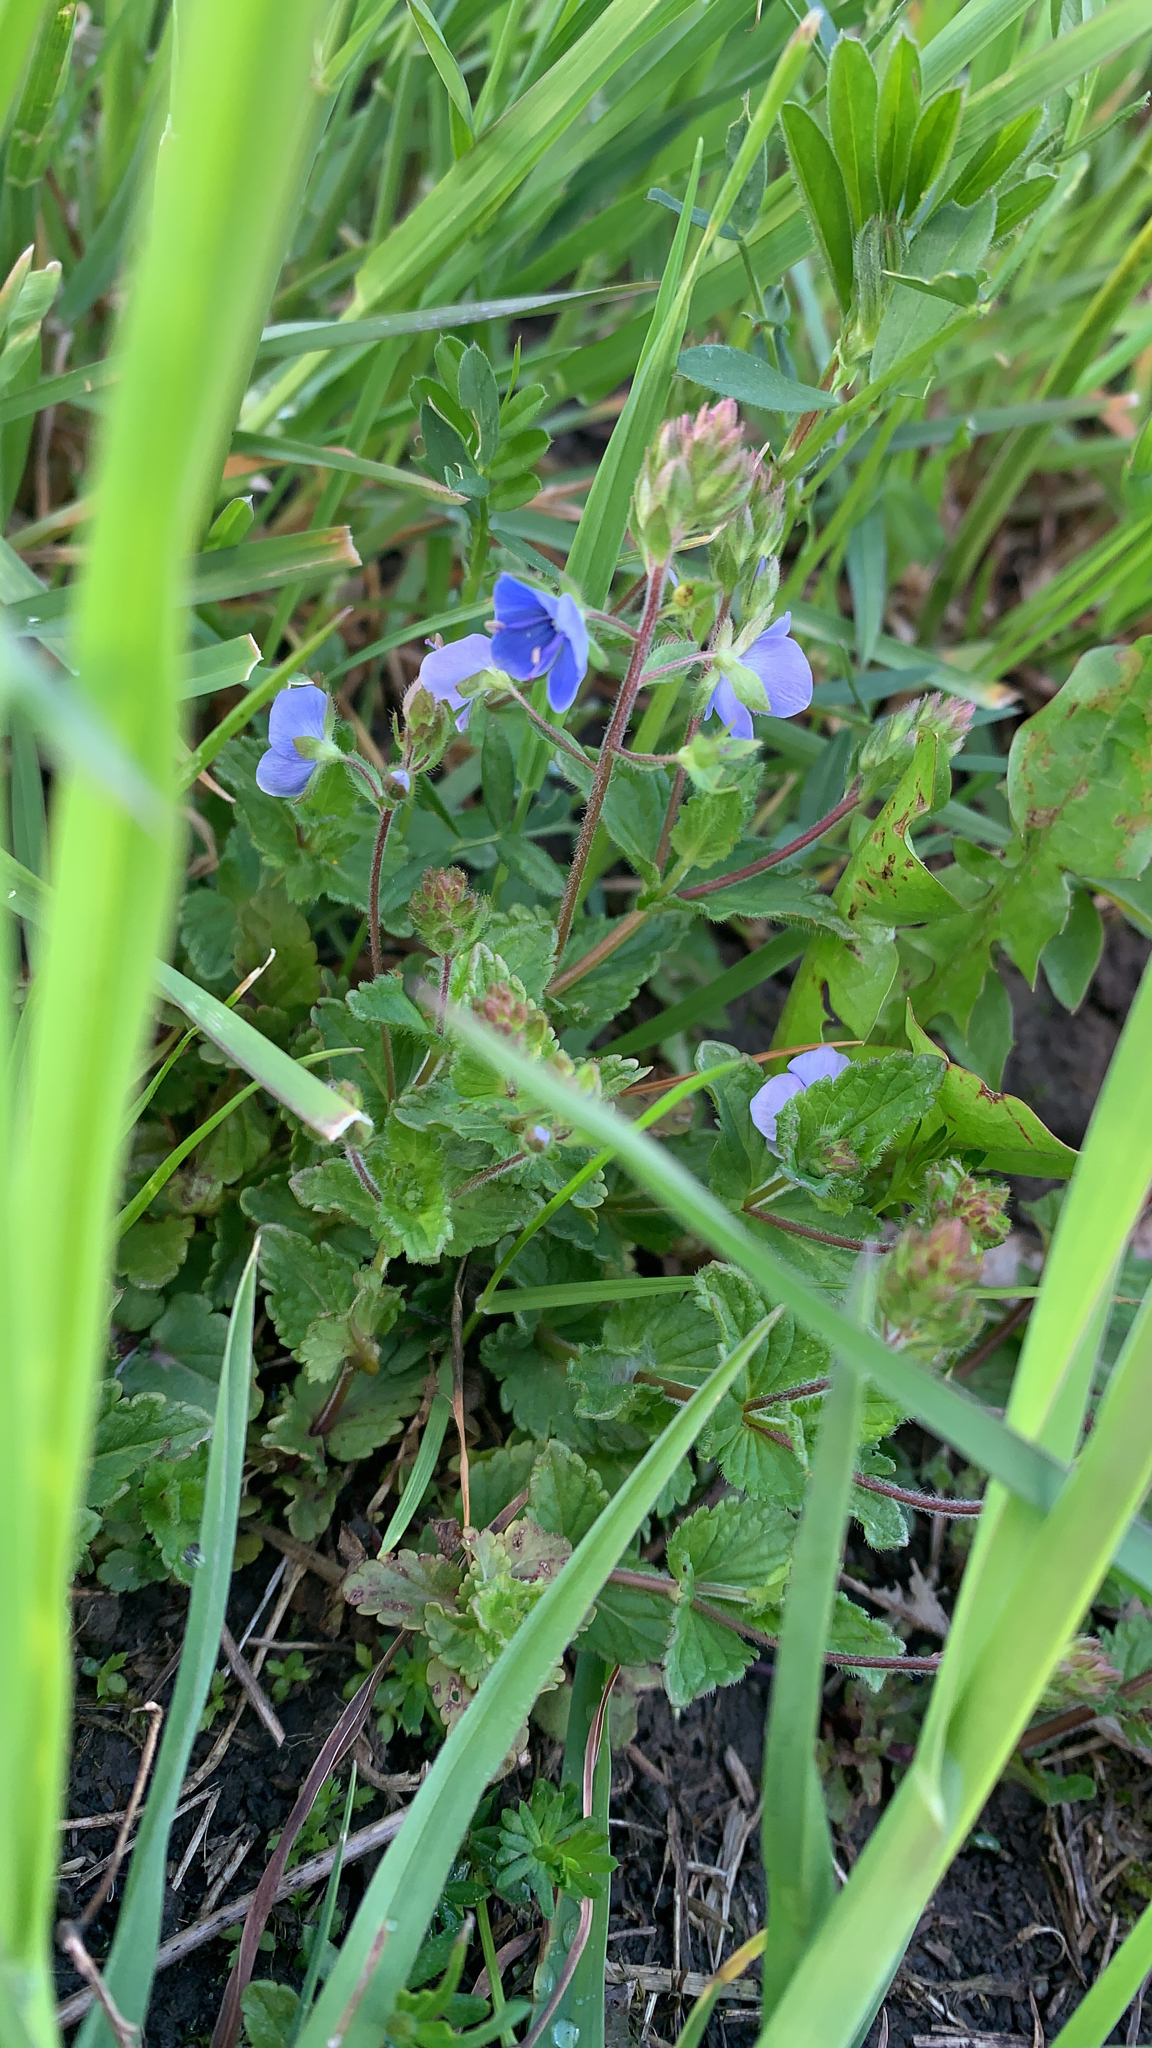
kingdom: Plantae
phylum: Tracheophyta
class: Magnoliopsida
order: Lamiales
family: Plantaginaceae
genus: Veronica
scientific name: Veronica chamaedrys
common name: Germander speedwell
